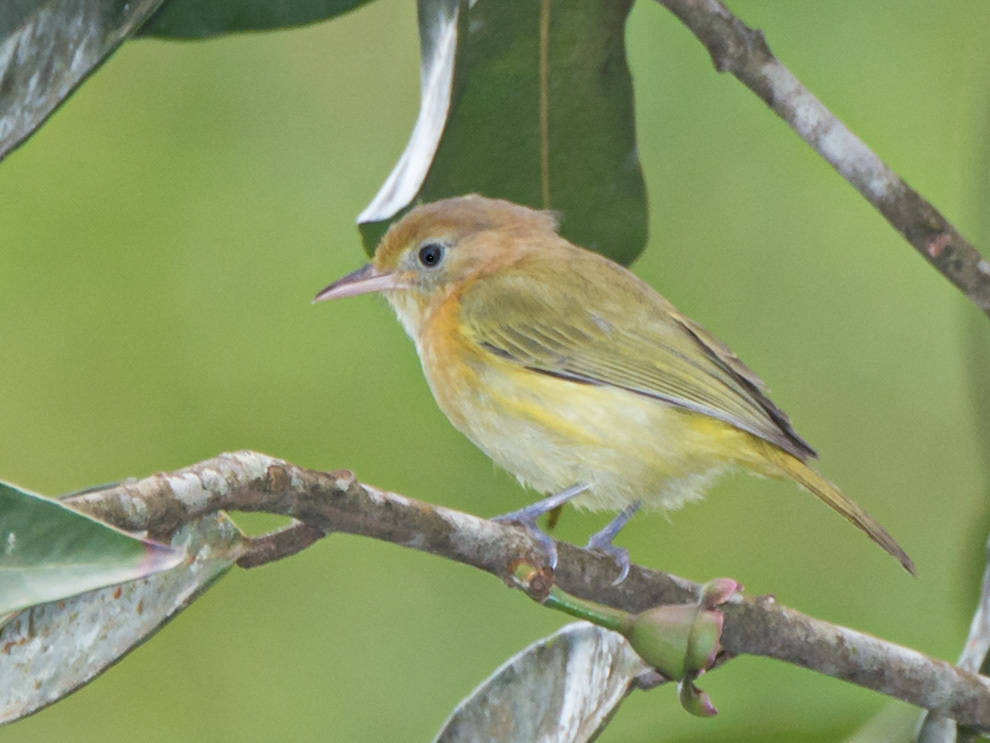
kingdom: Animalia
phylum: Chordata
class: Aves
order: Passeriformes
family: Vireonidae
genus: Hylophilus
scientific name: Hylophilus aurantiifrons
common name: Golden-fronted greenlet
